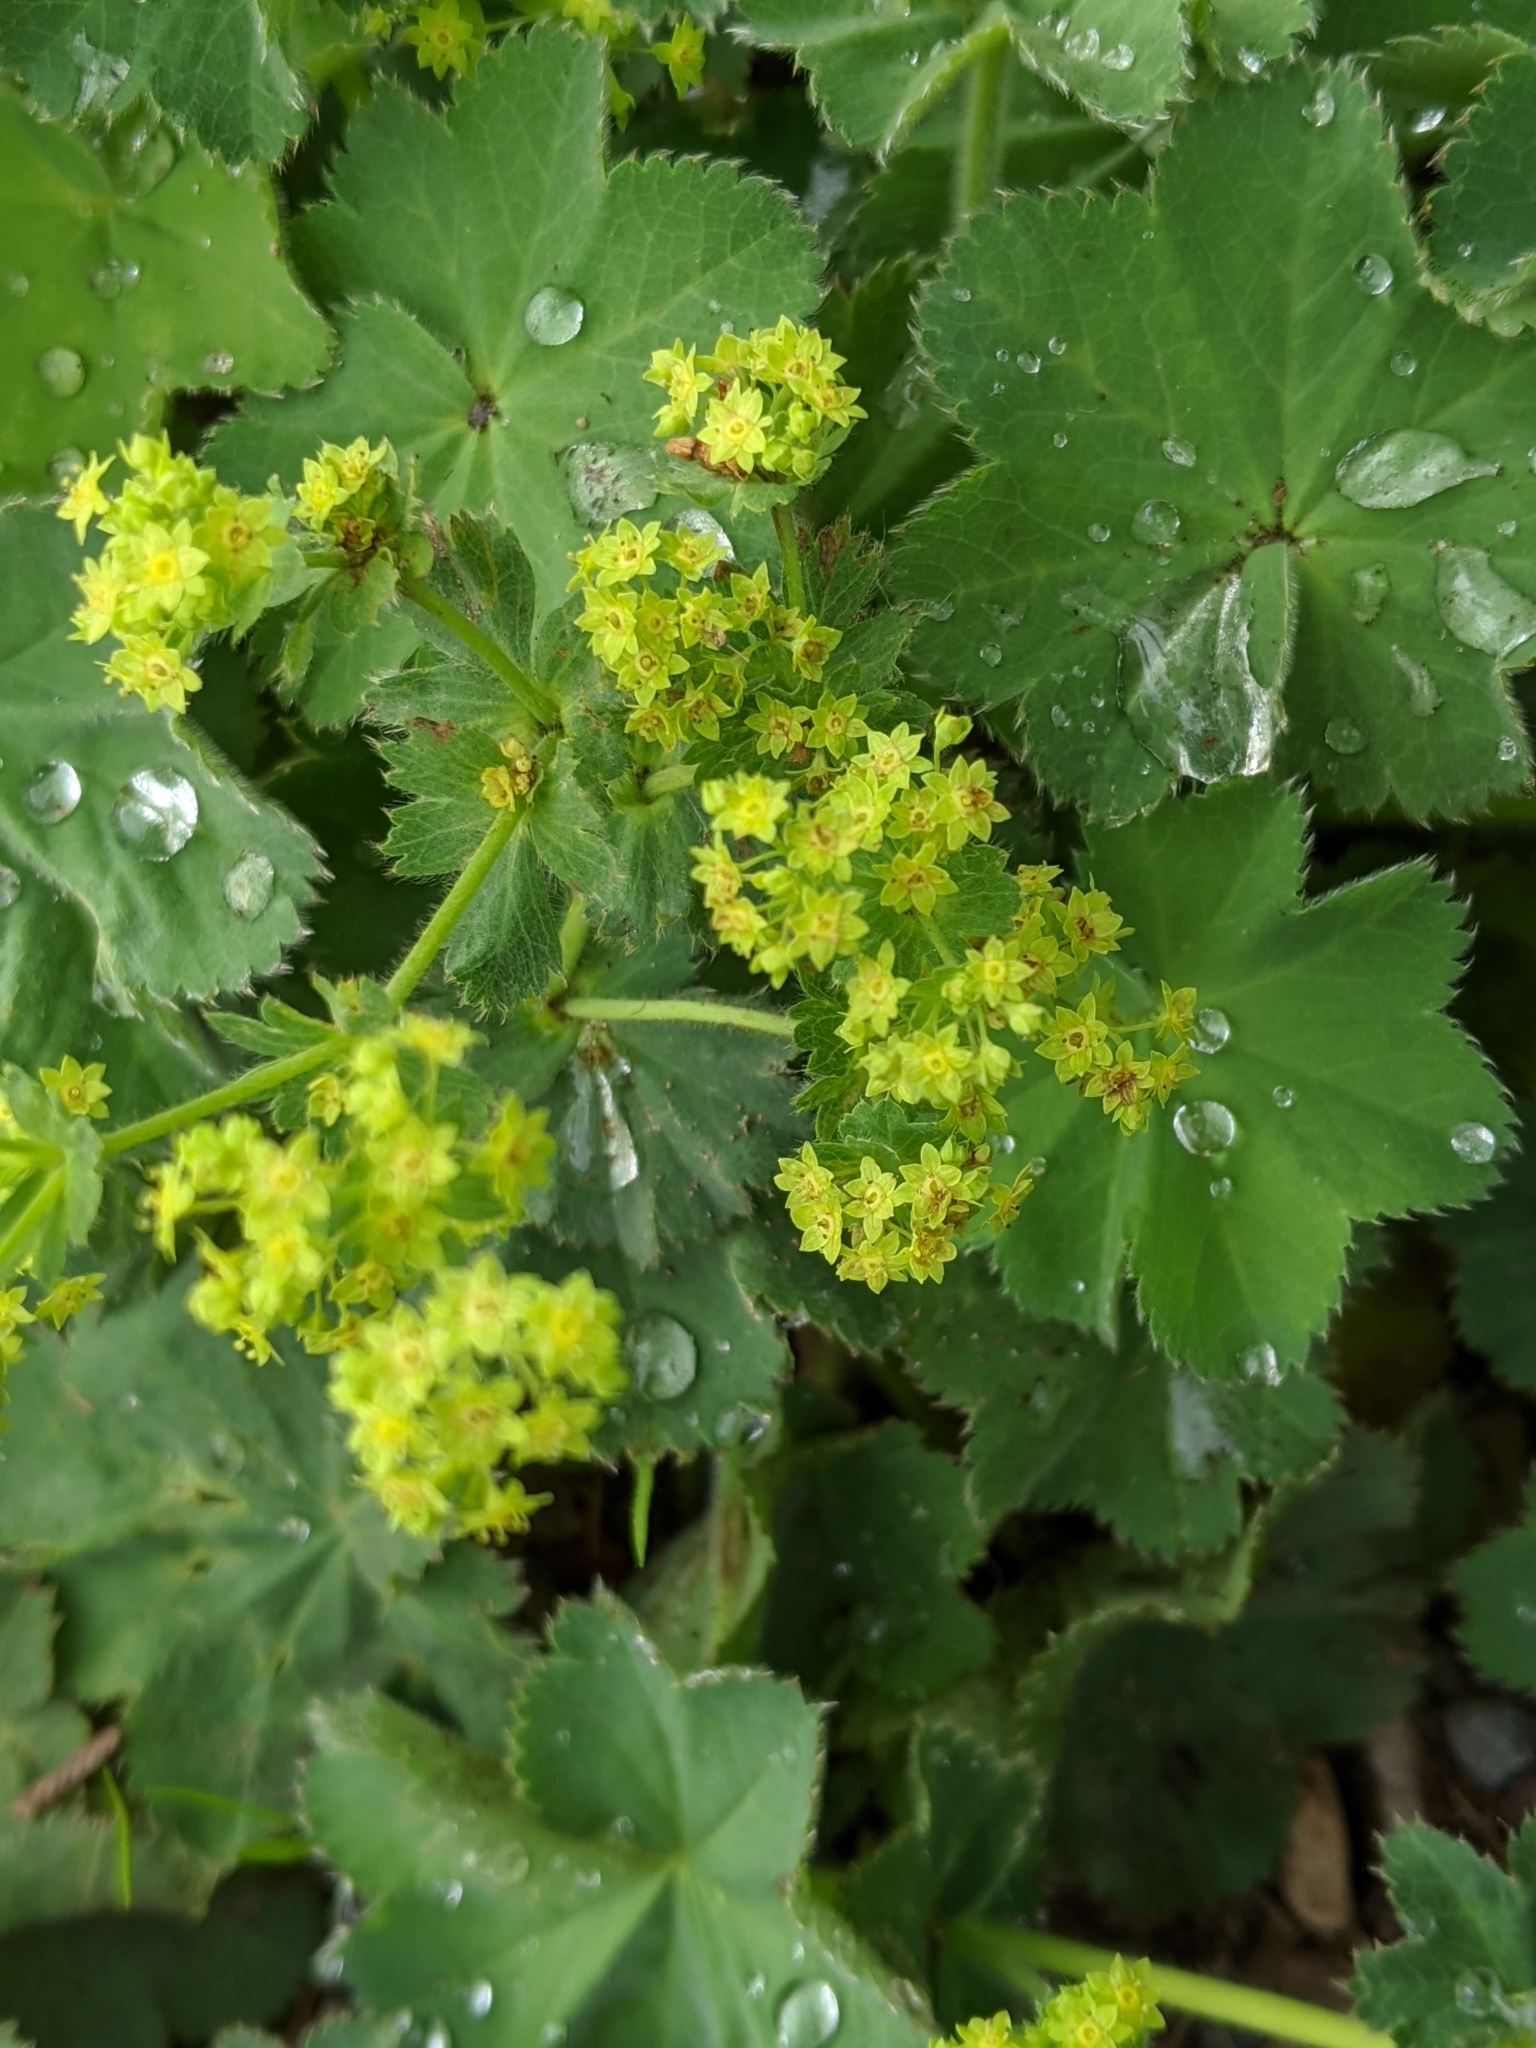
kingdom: Plantae
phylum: Tracheophyta
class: Magnoliopsida
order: Rosales
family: Rosaceae
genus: Alchemilla
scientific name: Alchemilla mollis
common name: Lady's-mantle
